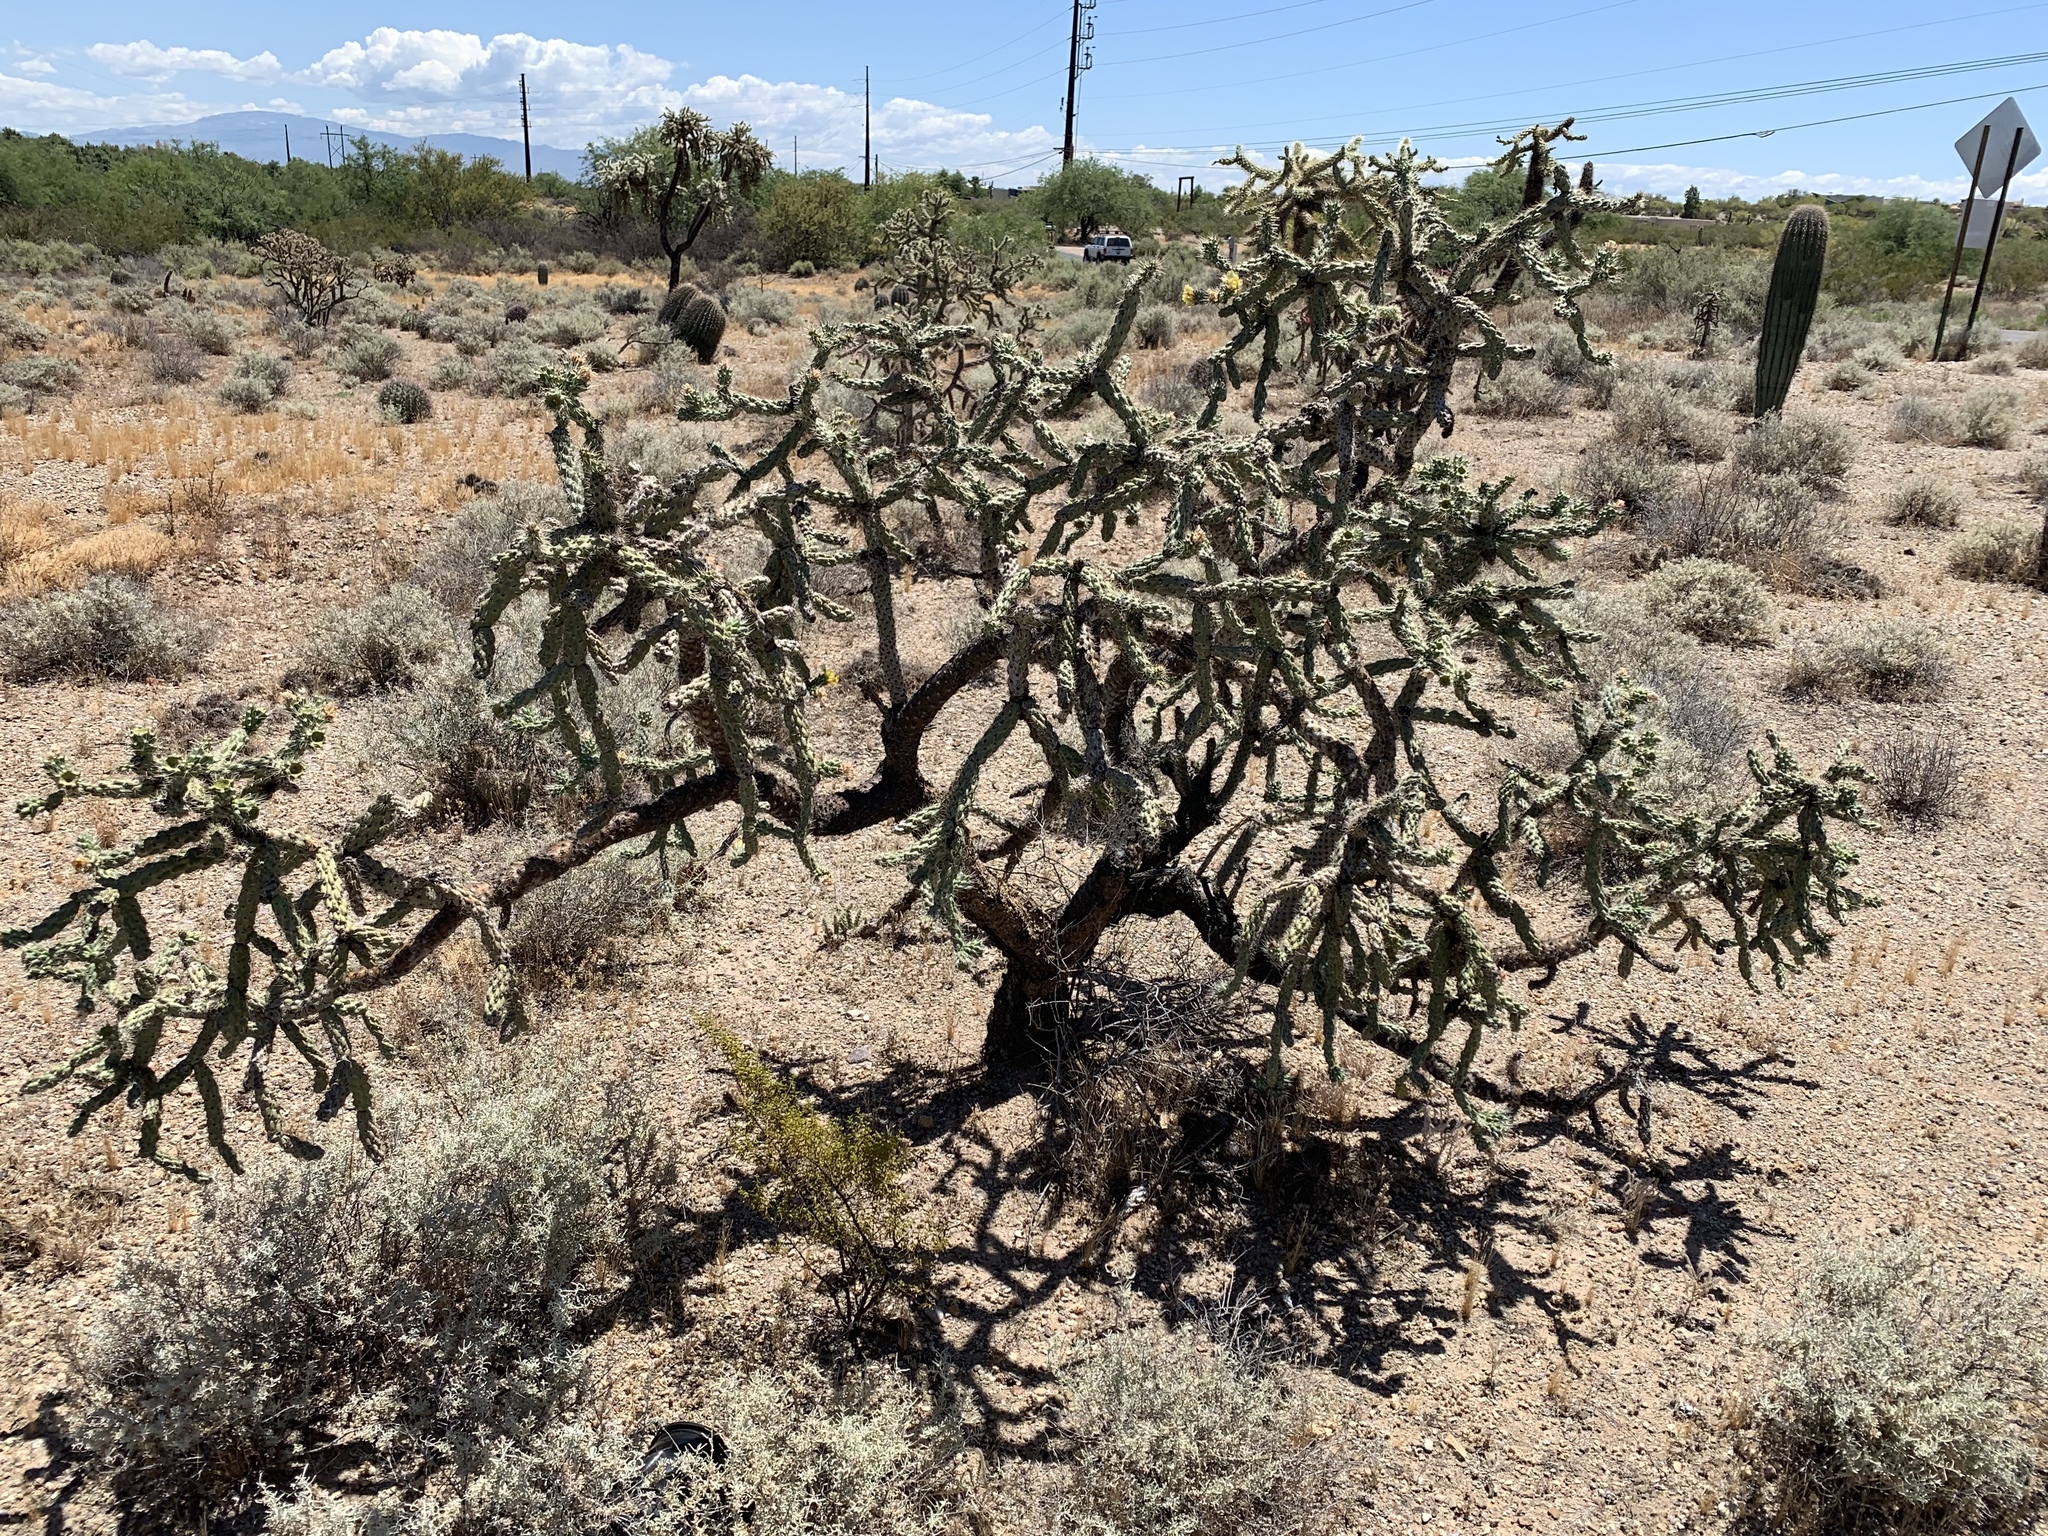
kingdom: Plantae
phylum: Tracheophyta
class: Magnoliopsida
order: Caryophyllales
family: Cactaceae
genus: Cylindropuntia
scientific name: Cylindropuntia imbricata
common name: Candelabrum cactus
